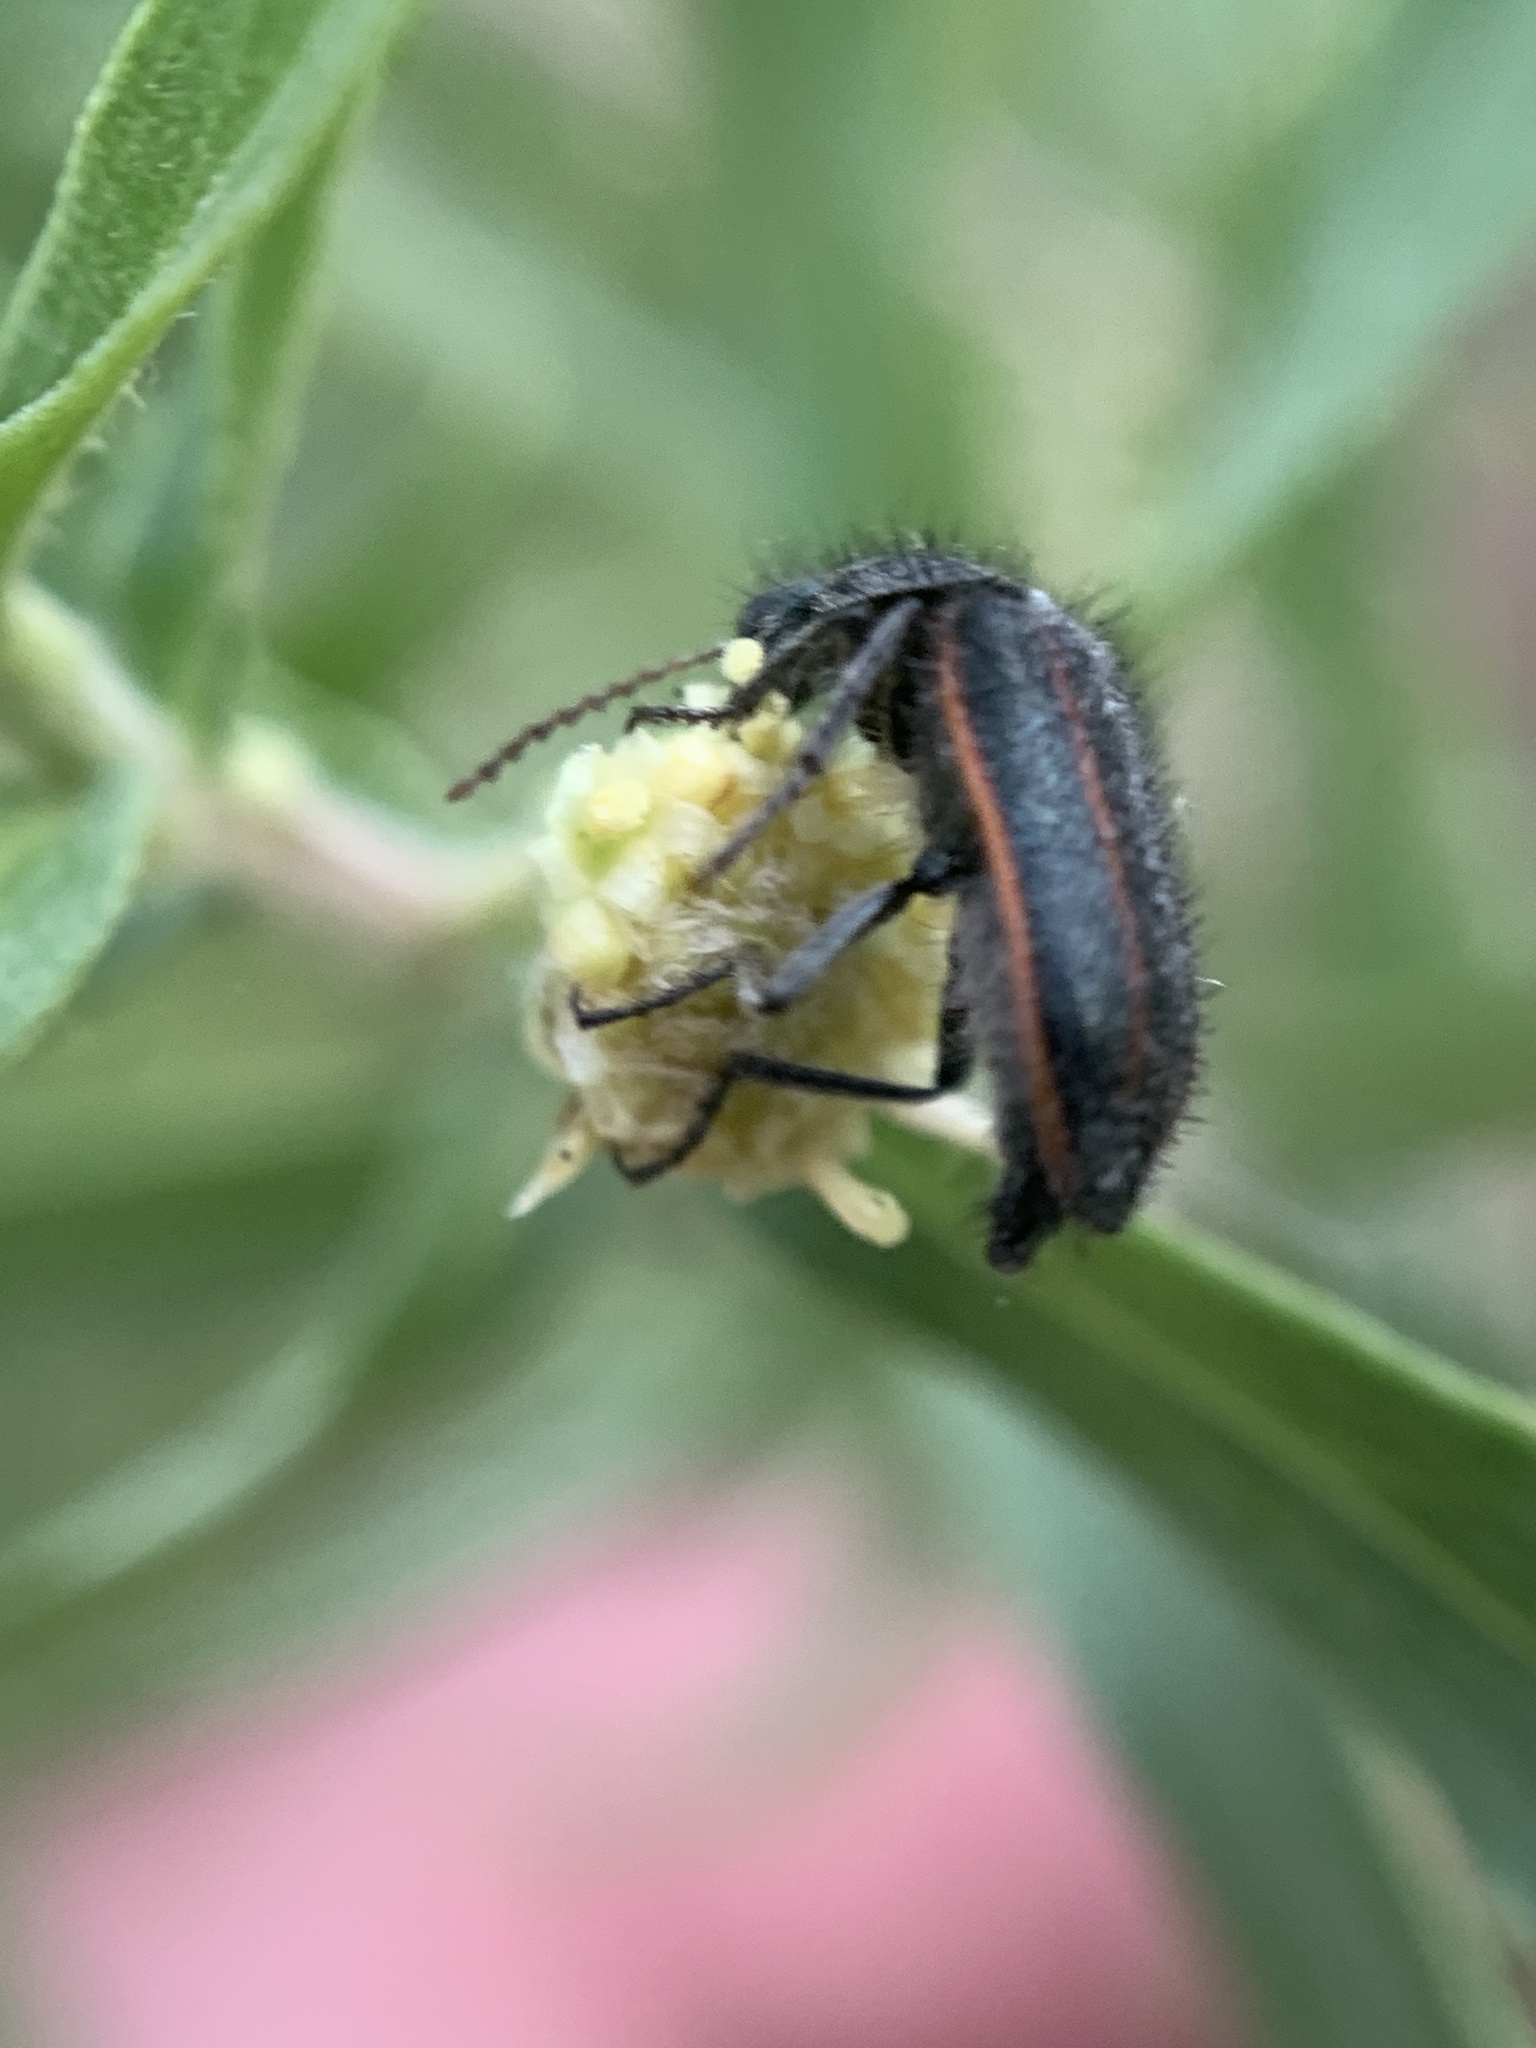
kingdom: Animalia
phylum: Arthropoda
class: Insecta
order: Coleoptera
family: Melyridae
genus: Astylus
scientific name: Astylus
